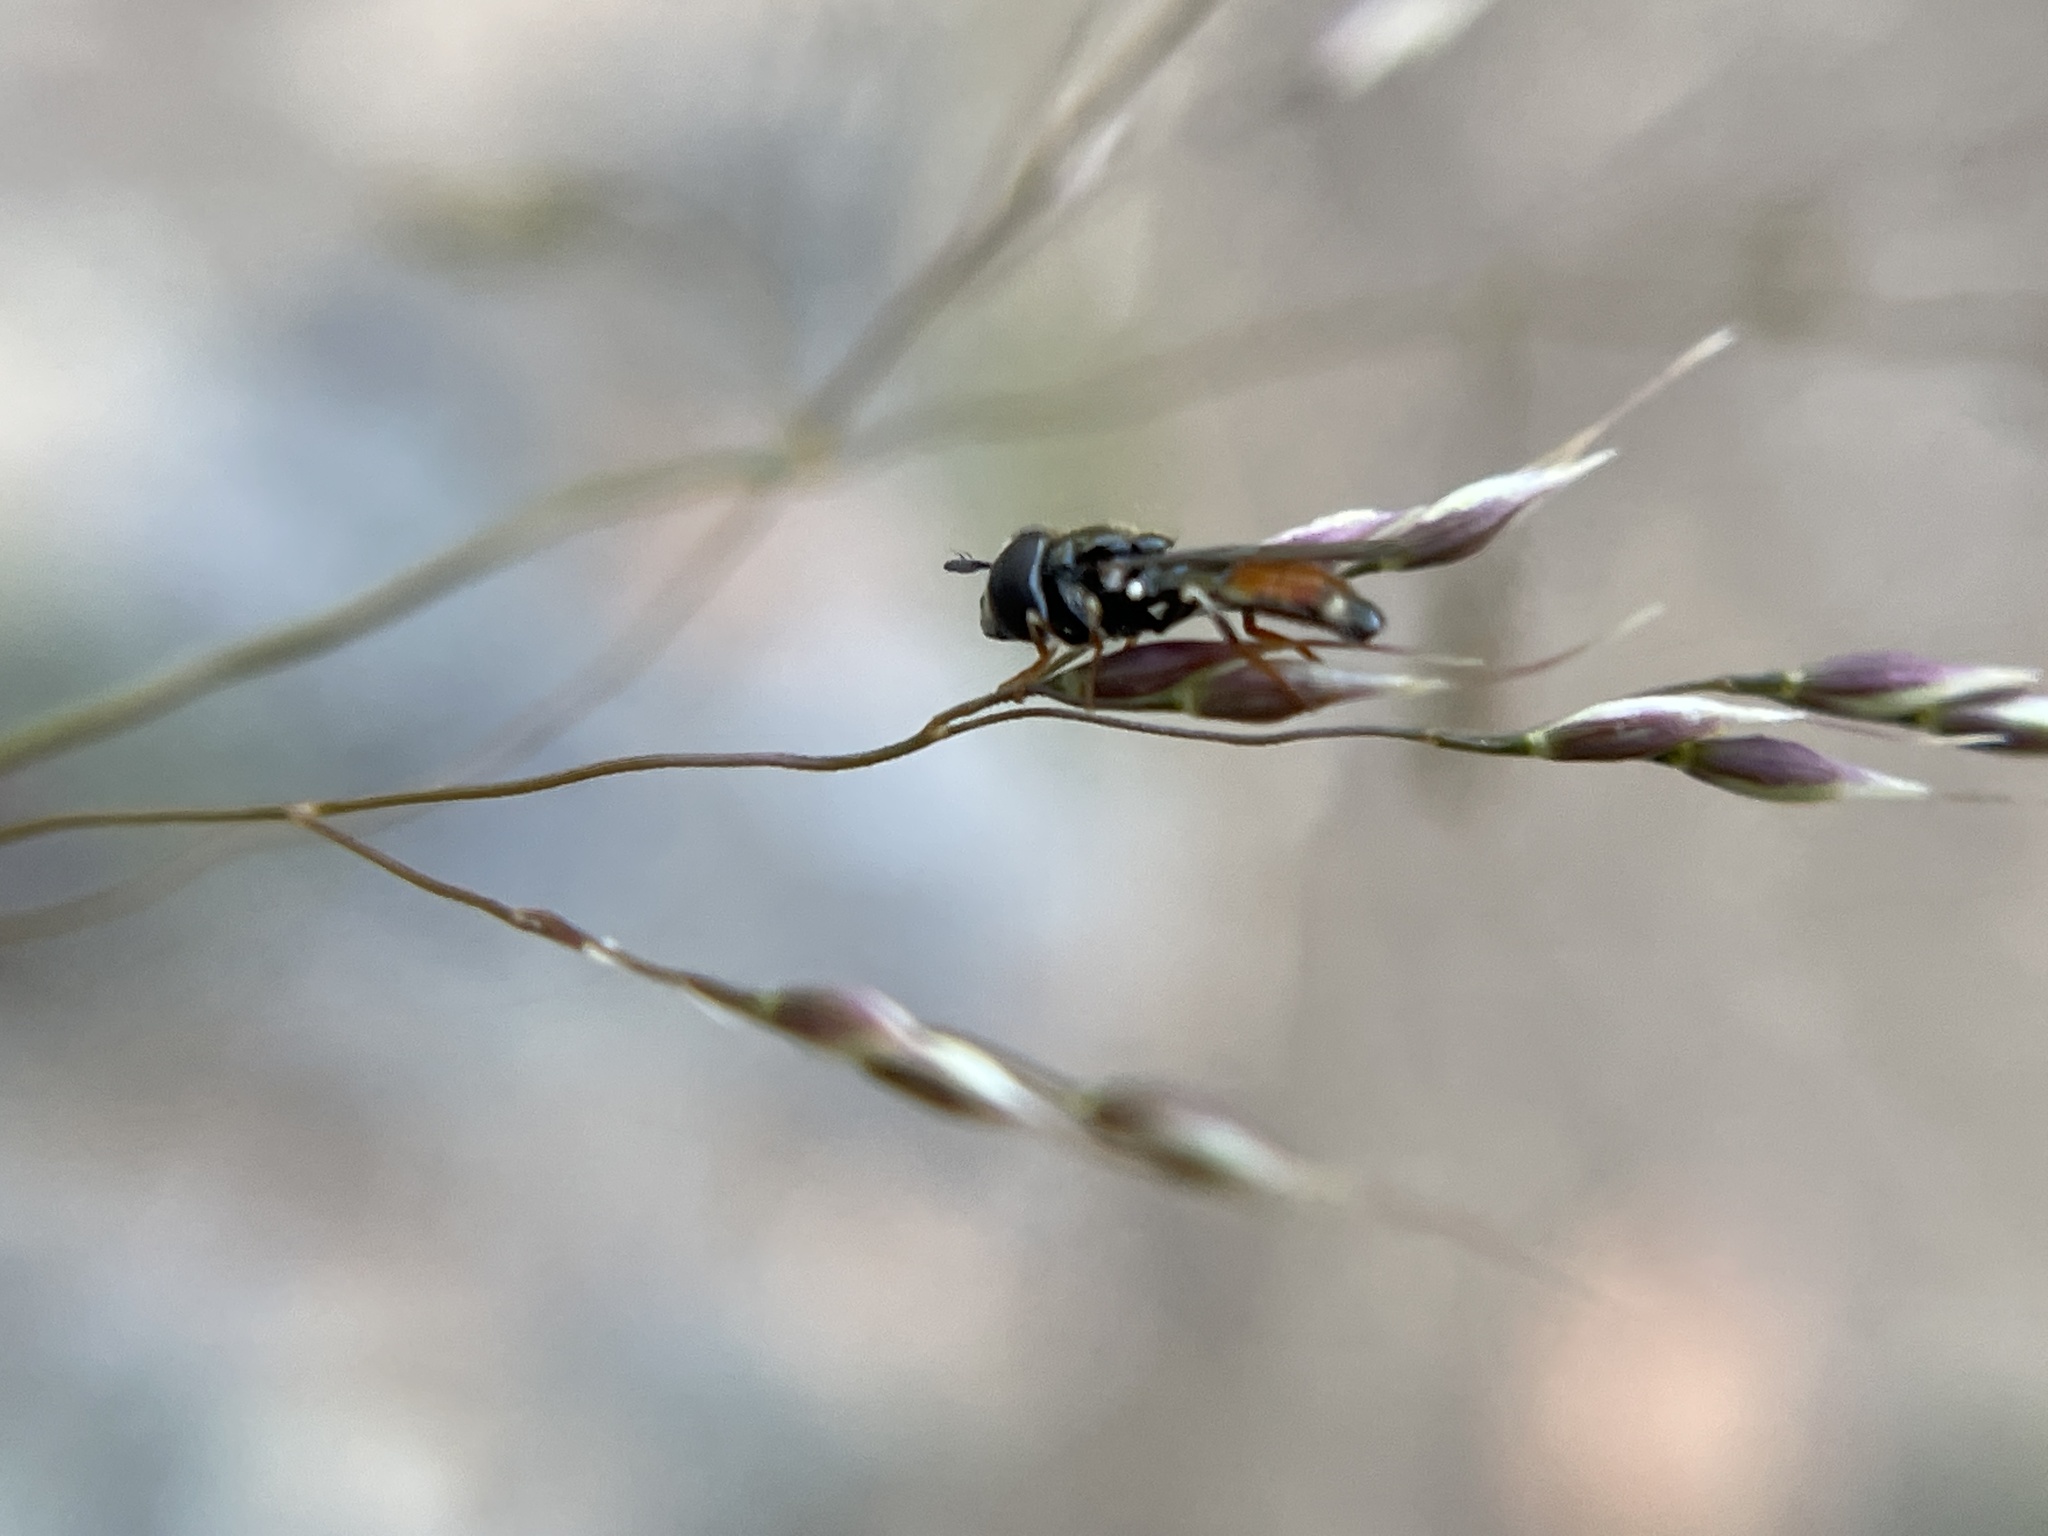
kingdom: Animalia
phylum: Arthropoda
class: Insecta
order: Diptera
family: Syrphidae
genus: Paragus
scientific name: Paragus haemorrhous
